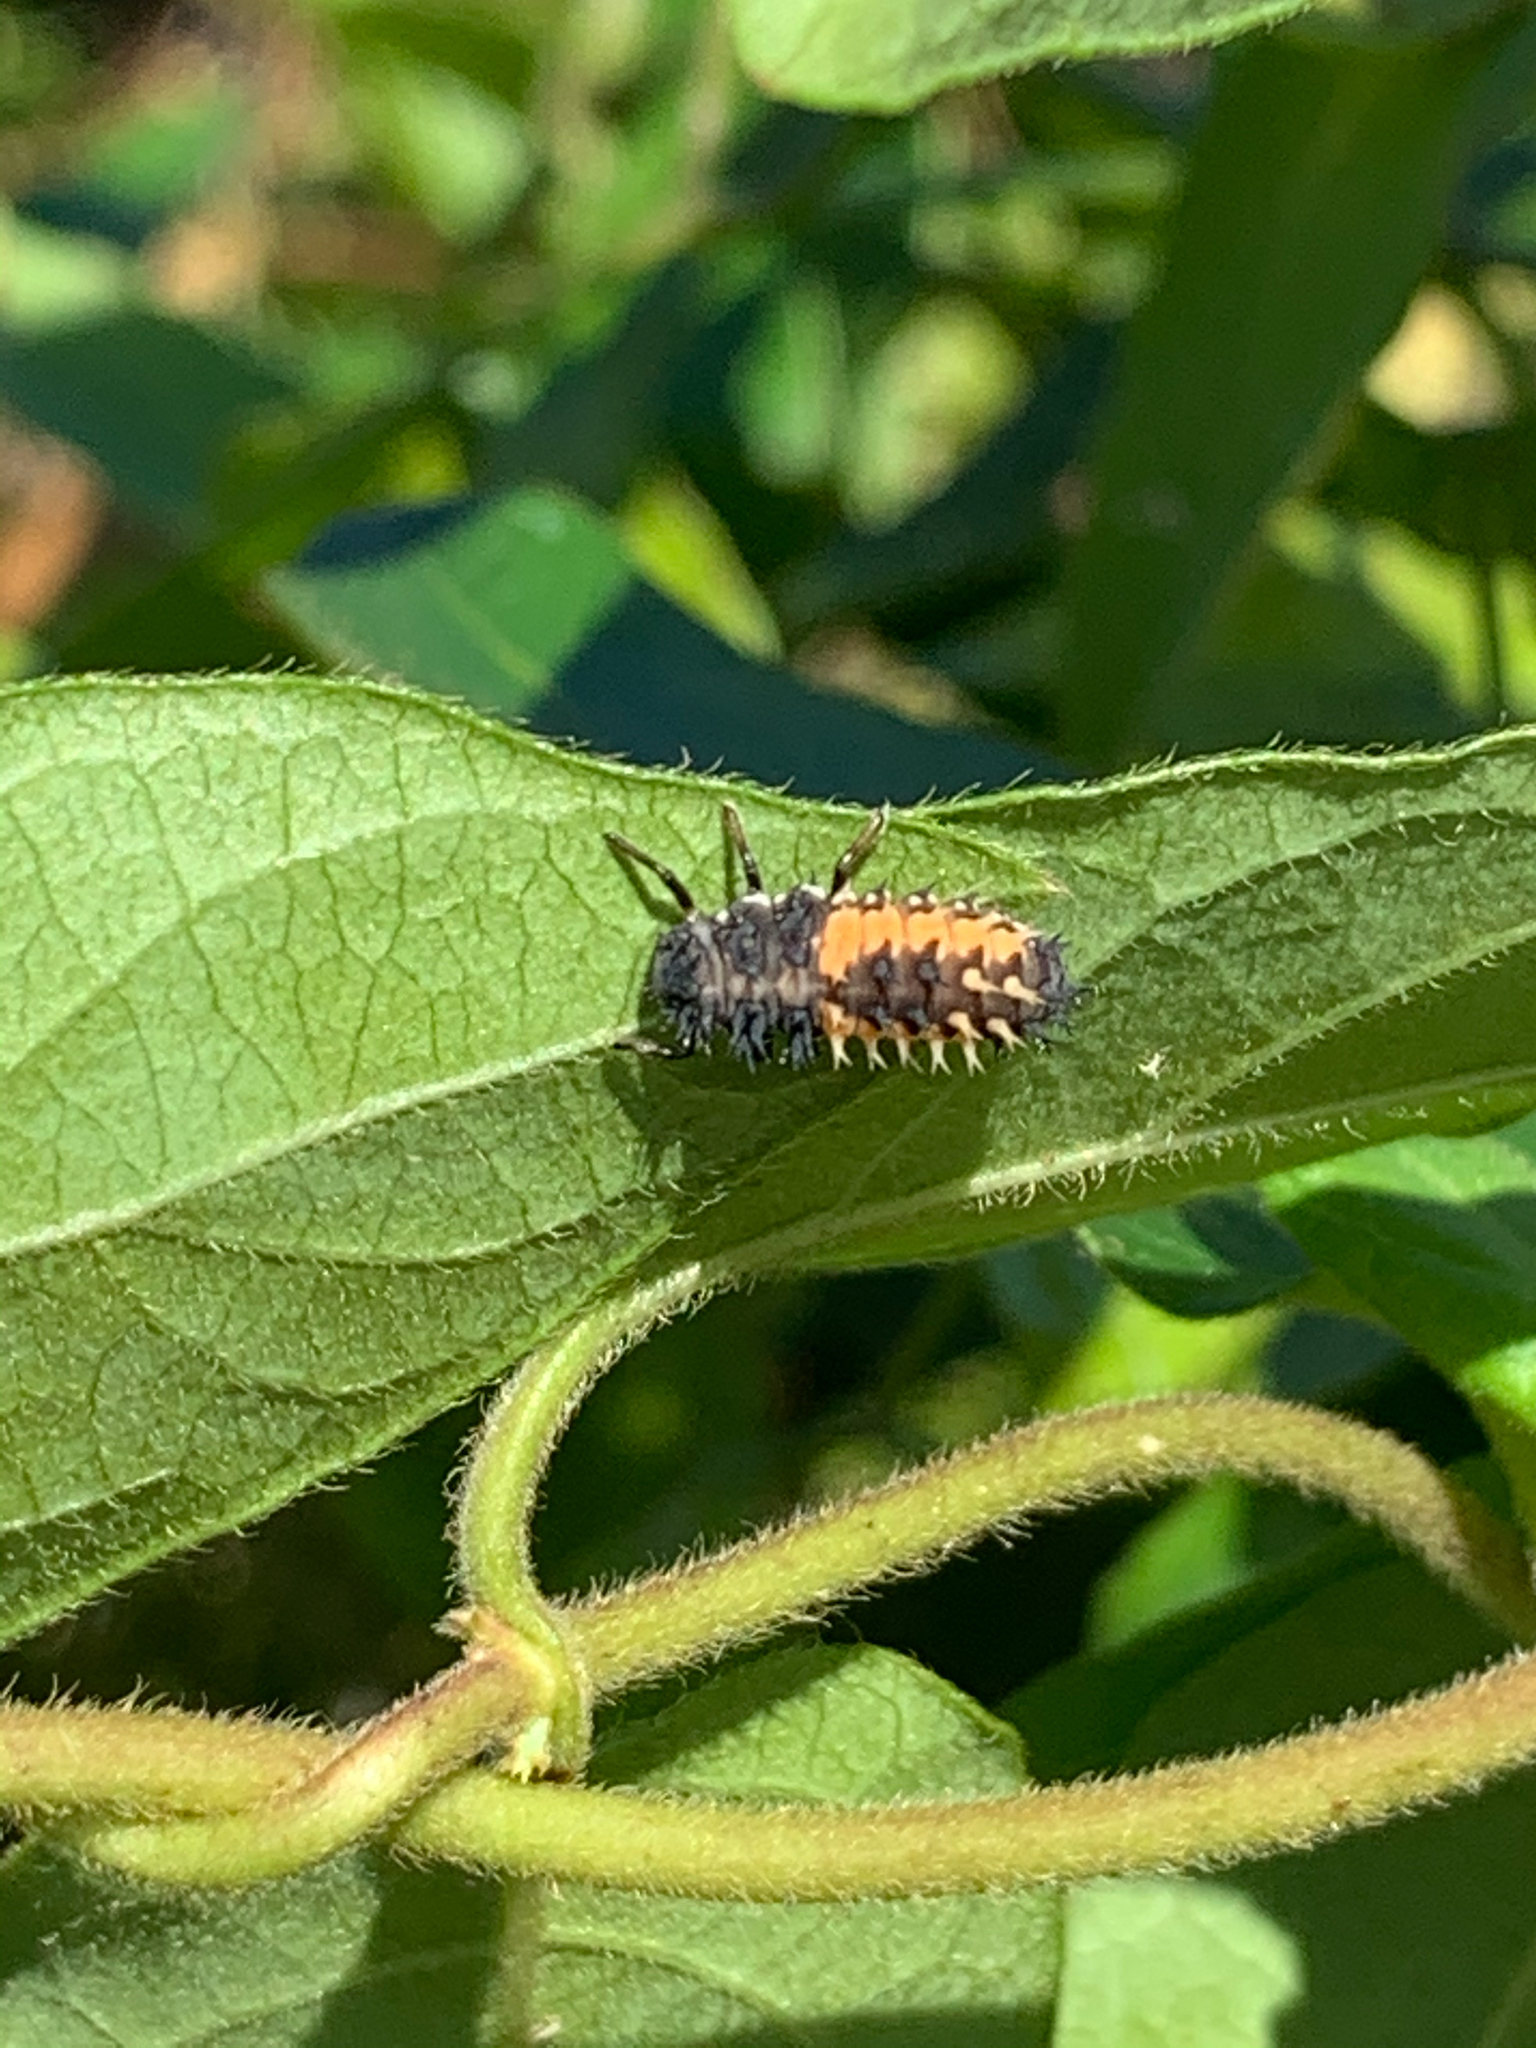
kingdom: Animalia
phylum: Arthropoda
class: Insecta
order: Coleoptera
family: Coccinellidae
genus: Harmonia
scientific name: Harmonia axyridis
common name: Harlequin ladybird
